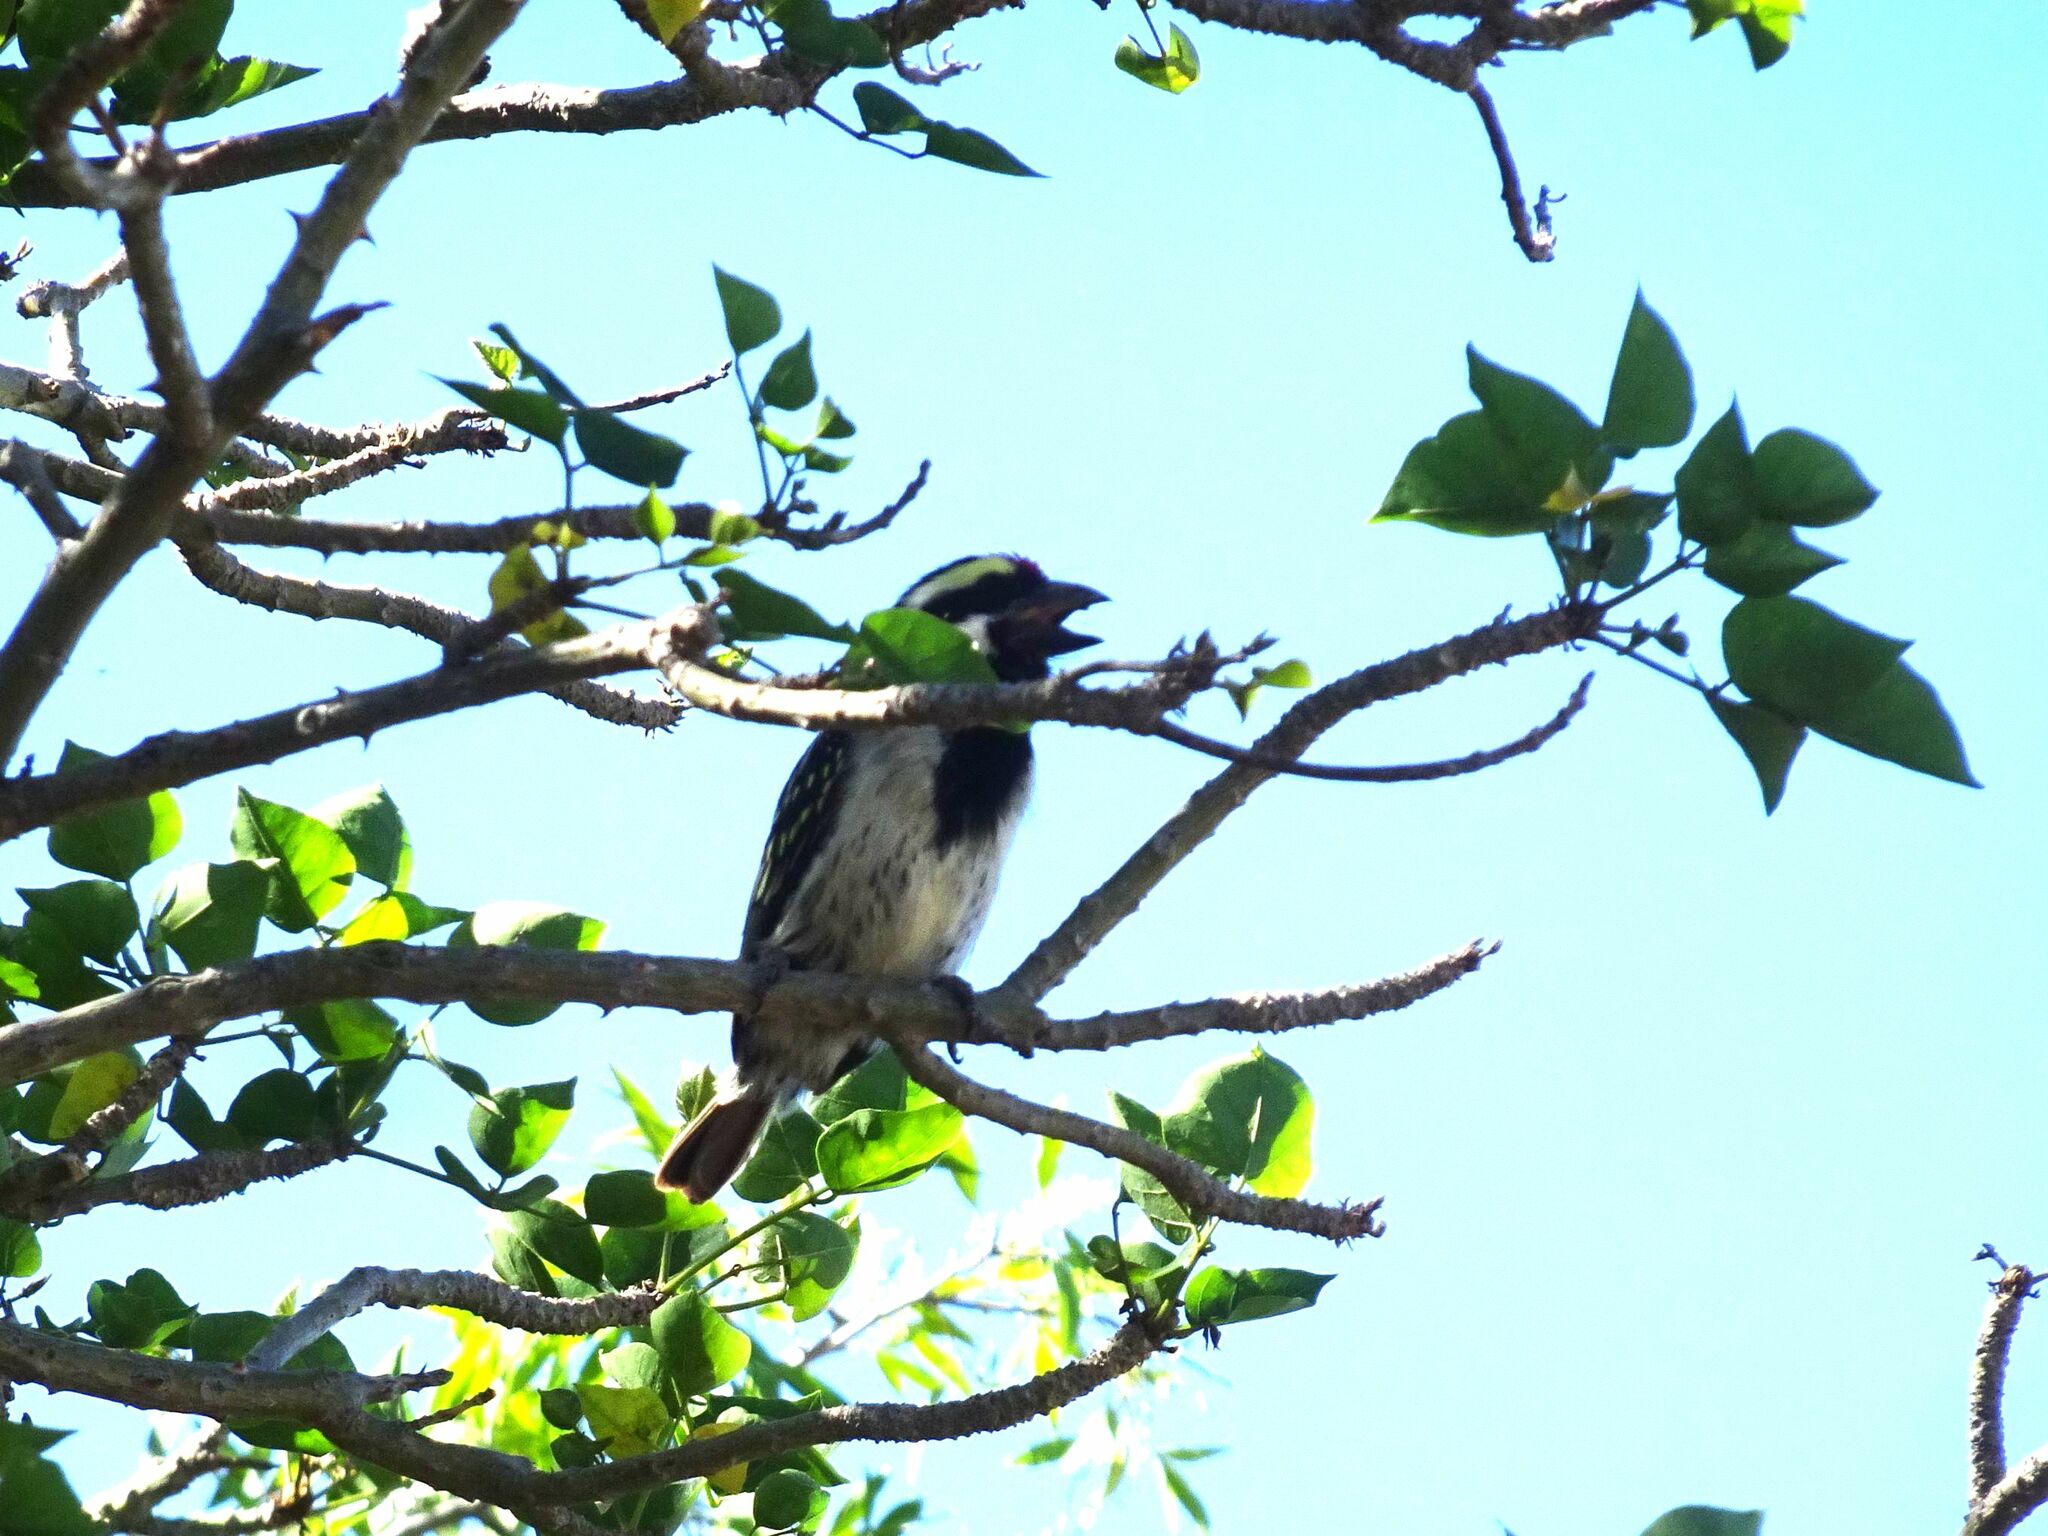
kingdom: Animalia
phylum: Chordata
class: Aves
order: Piciformes
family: Lybiidae
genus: Tricholaema
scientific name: Tricholaema leucomelas
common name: Acacia pied barbet
